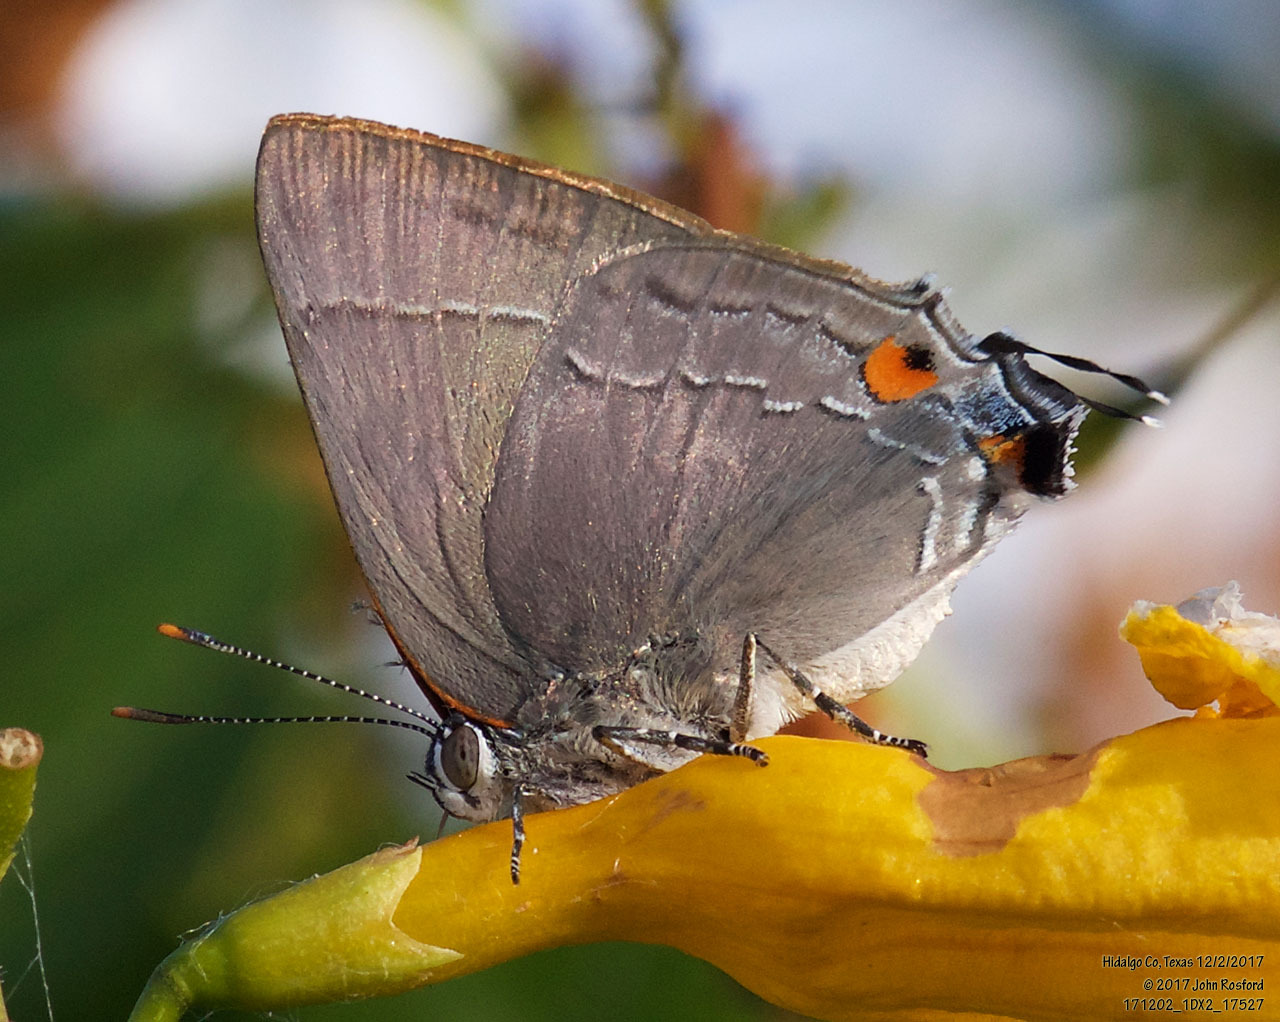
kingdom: Animalia
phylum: Arthropoda
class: Insecta
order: Lepidoptera
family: Lycaenidae
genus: Thecla
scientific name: Thecla marius
